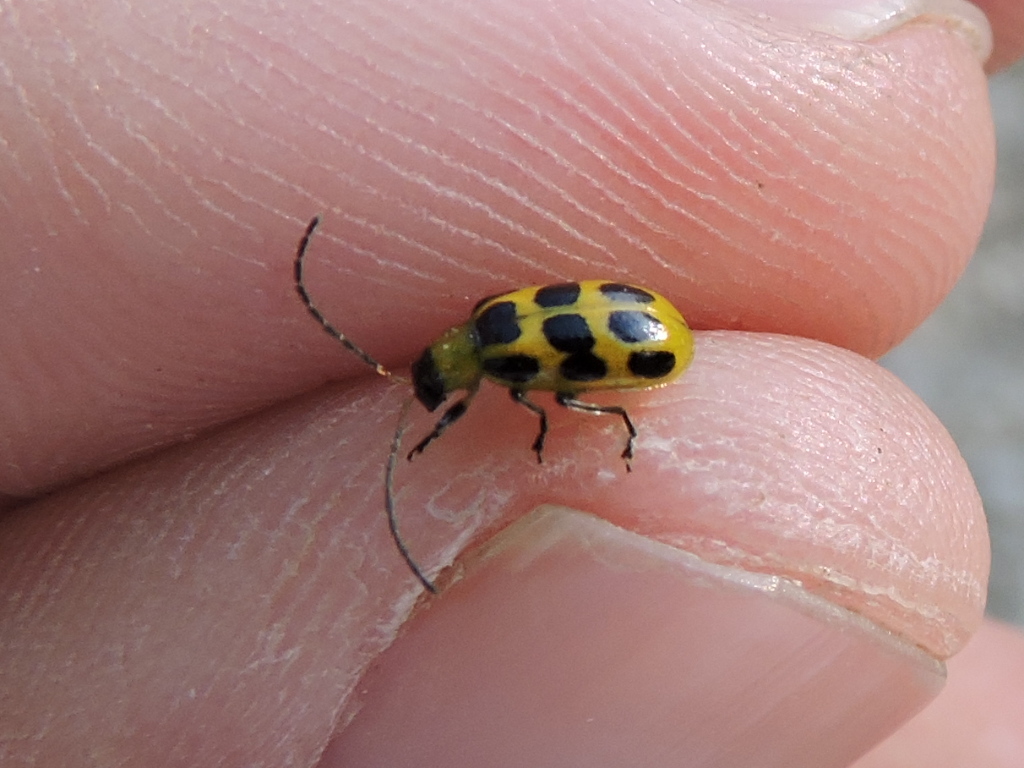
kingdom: Animalia
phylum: Arthropoda
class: Insecta
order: Coleoptera
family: Chrysomelidae
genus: Diabrotica
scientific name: Diabrotica undecimpunctata
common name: Spotted cucumber beetle
